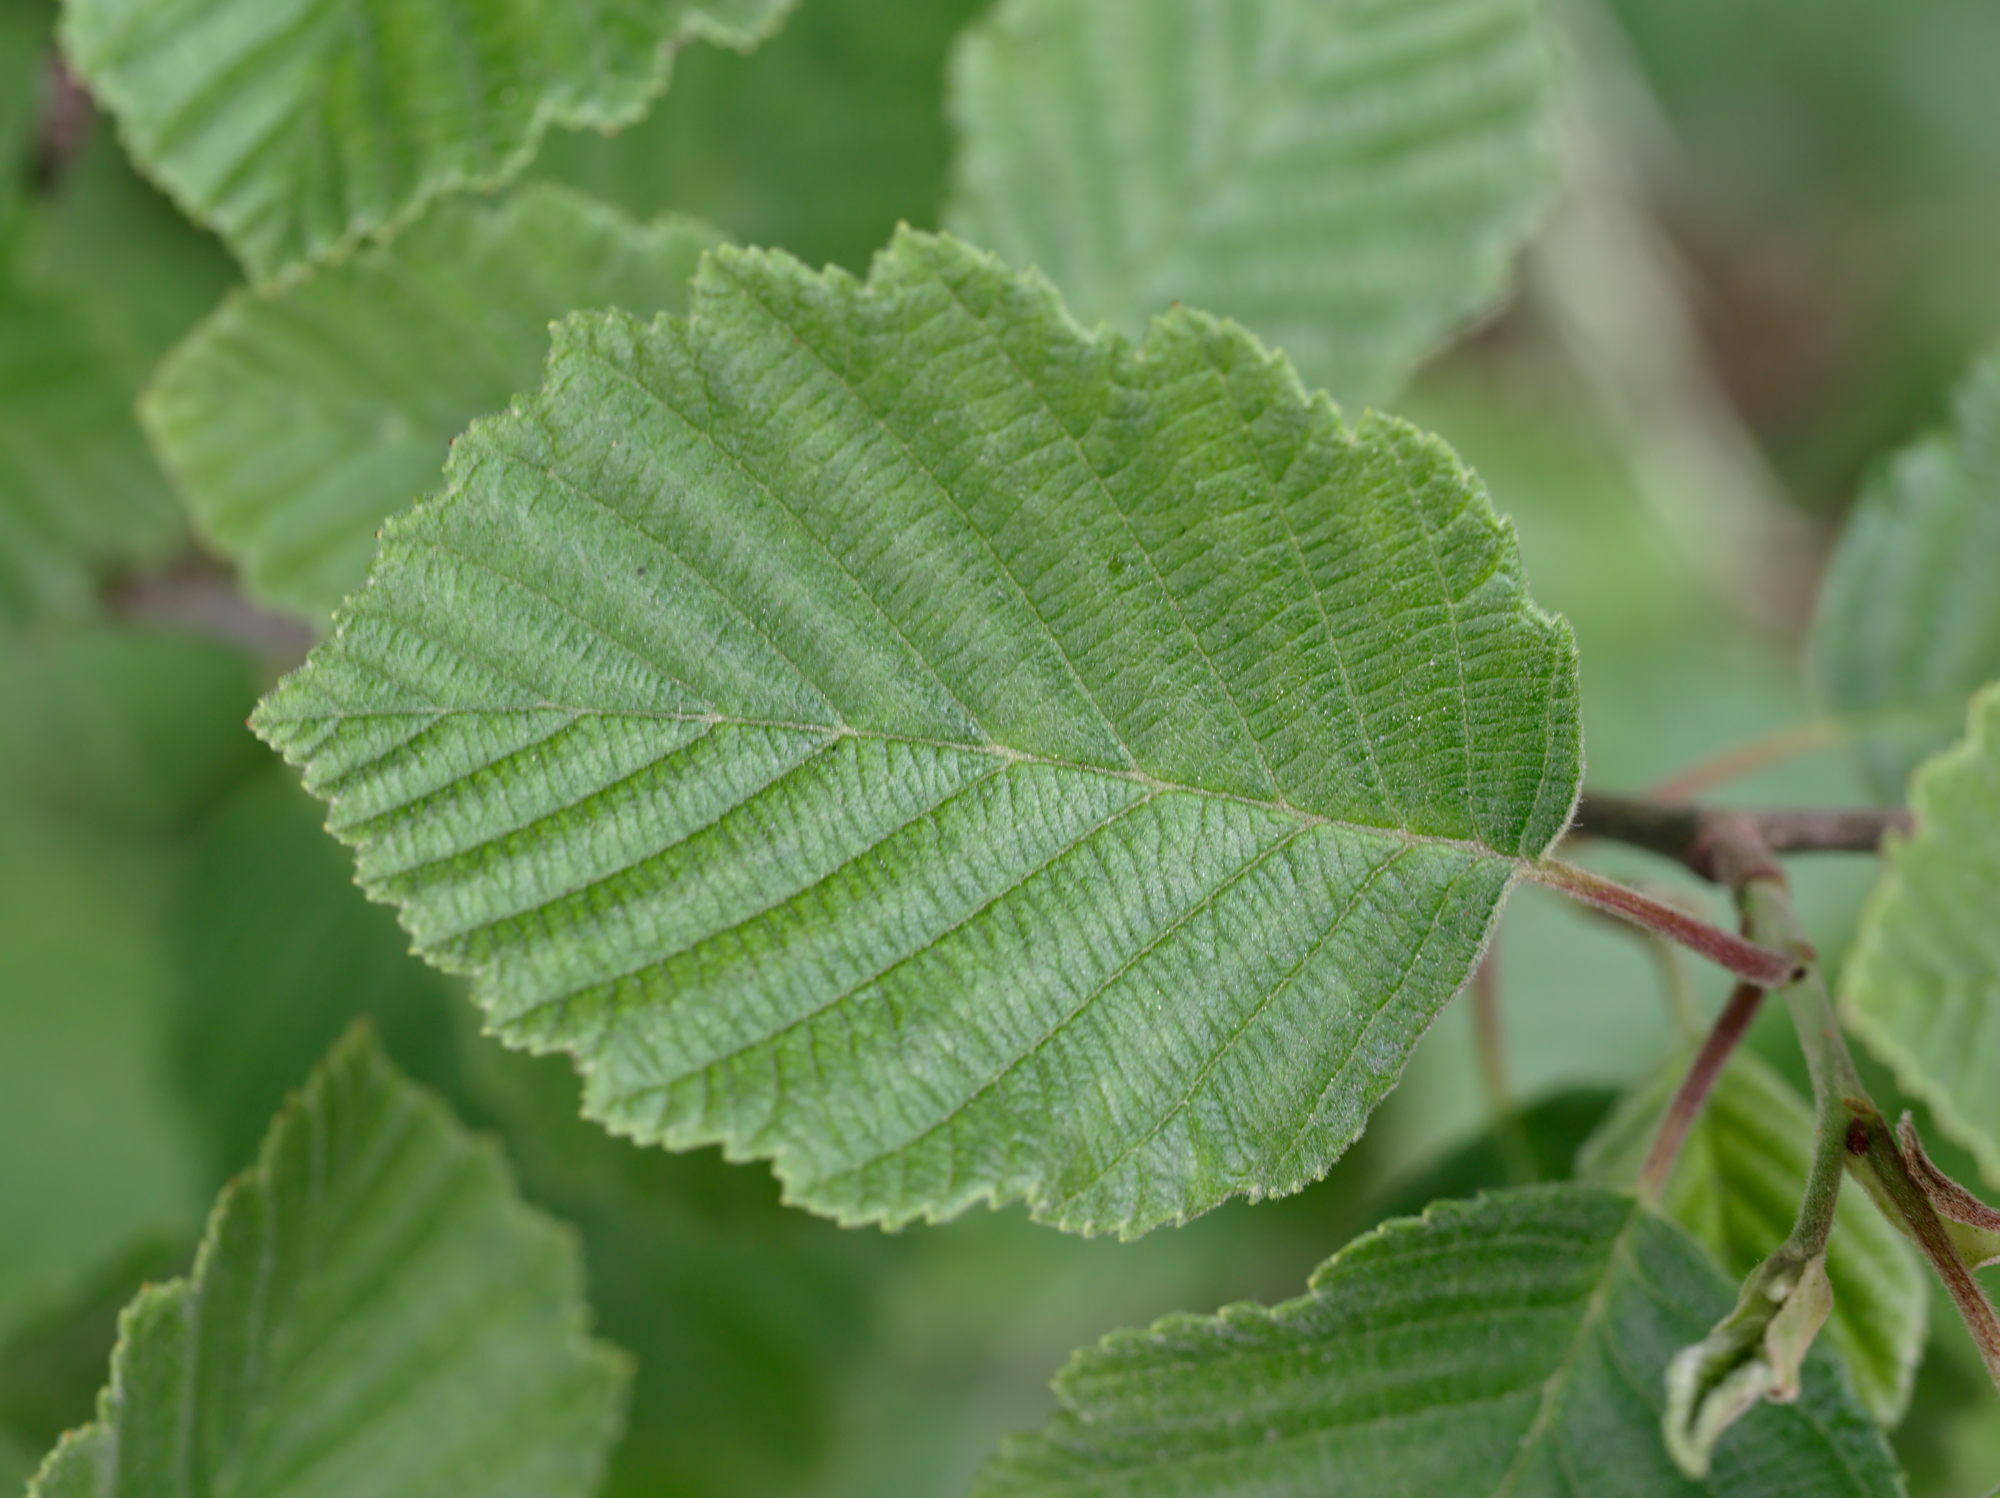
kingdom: Plantae
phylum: Tracheophyta
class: Magnoliopsida
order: Fagales
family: Betulaceae
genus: Alnus
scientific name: Alnus incana
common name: Grey alder
